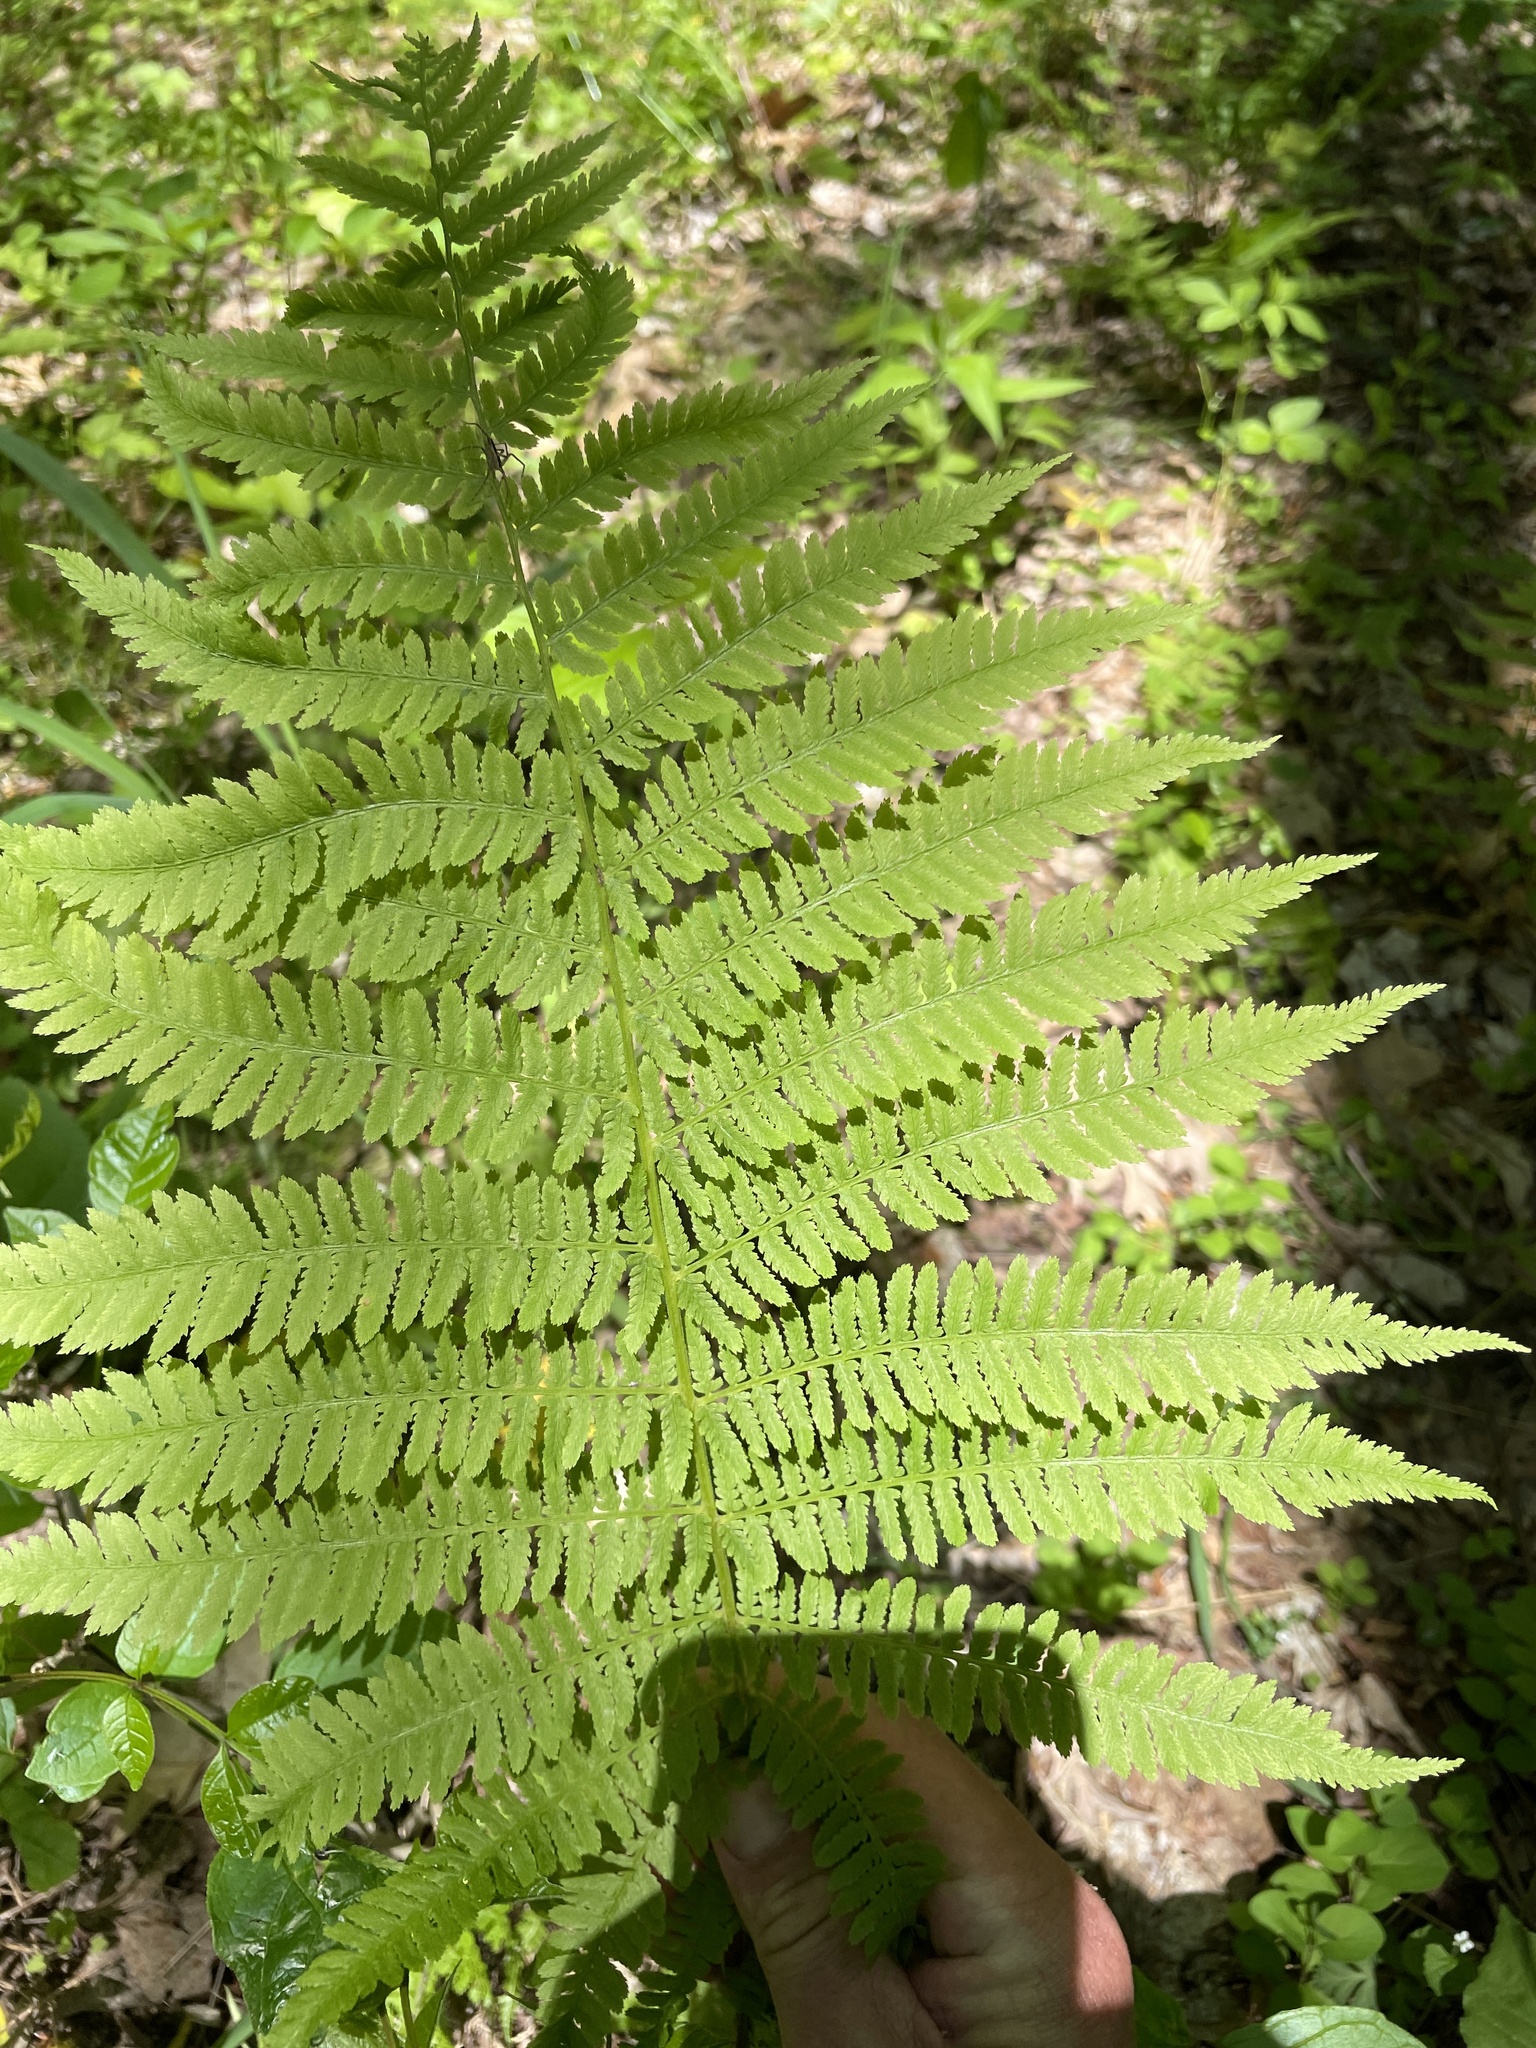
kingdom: Plantae
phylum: Tracheophyta
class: Polypodiopsida
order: Polypodiales
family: Athyriaceae
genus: Athyrium
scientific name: Athyrium angustum
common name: Northern lady fern
